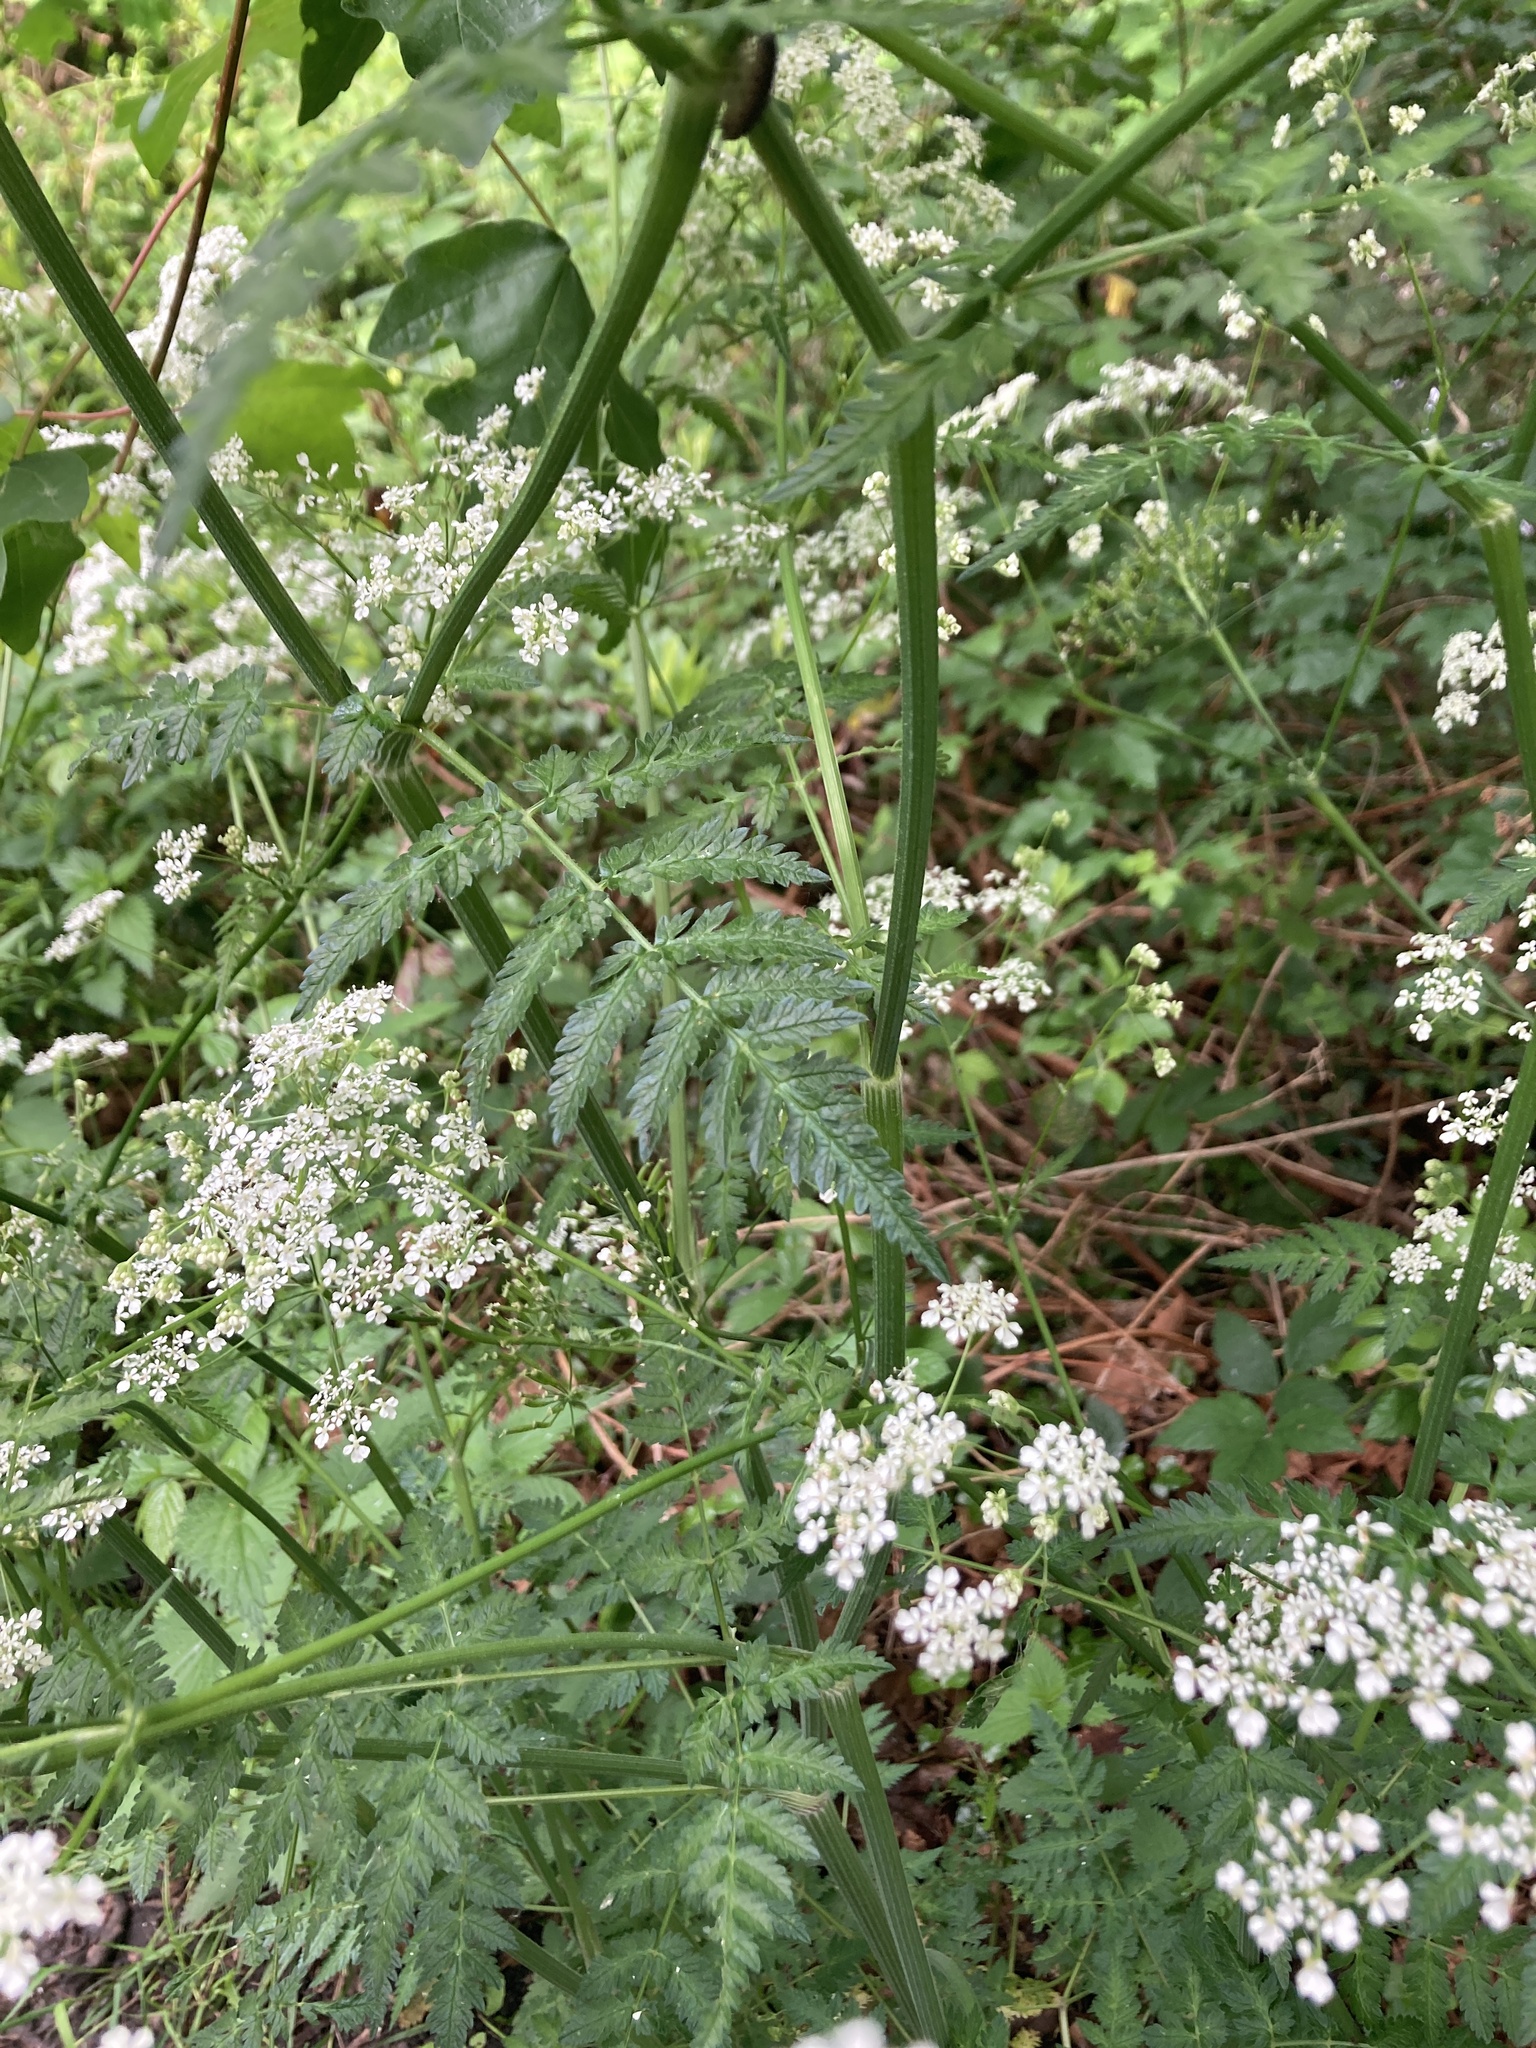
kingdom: Plantae
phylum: Tracheophyta
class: Magnoliopsida
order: Apiales
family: Apiaceae
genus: Anthriscus
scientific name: Anthriscus sylvestris
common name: Cow parsley
